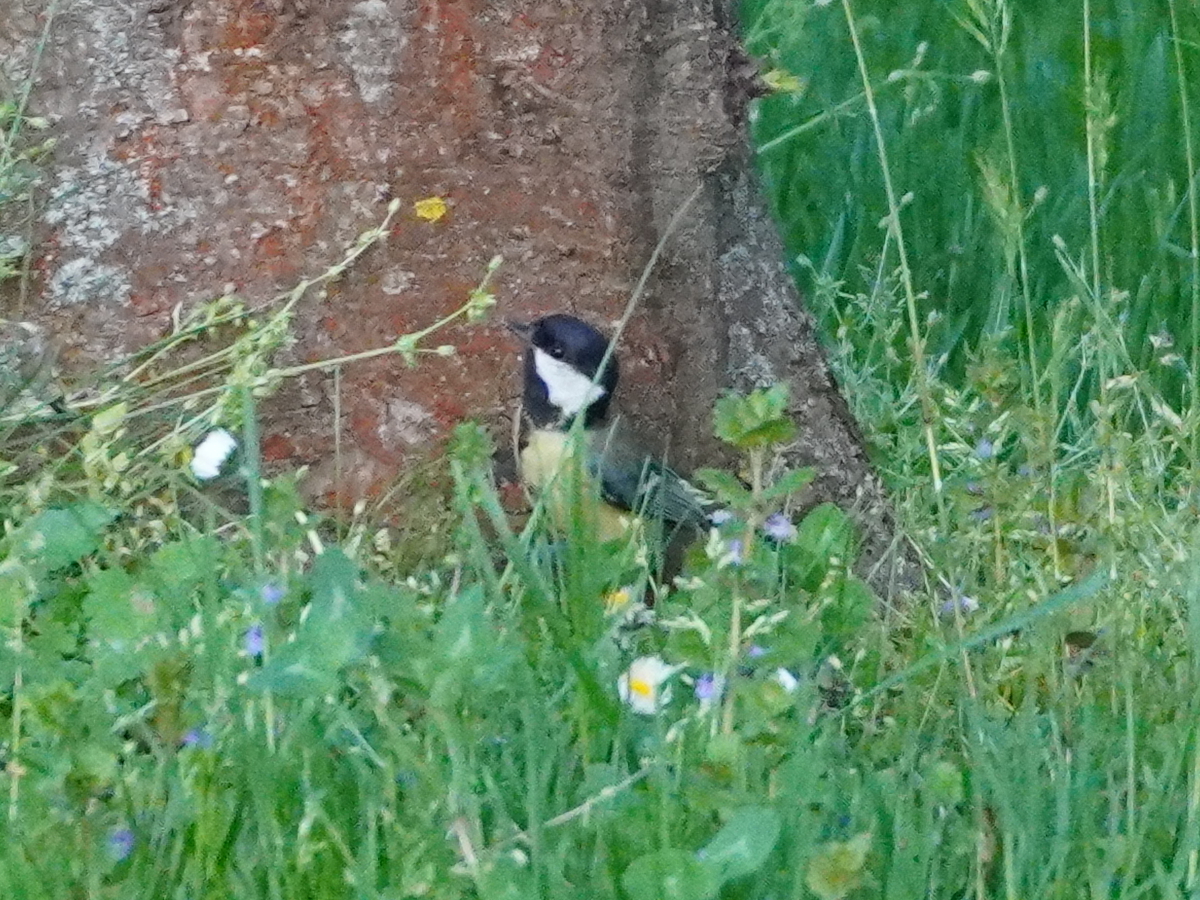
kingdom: Animalia
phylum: Chordata
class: Aves
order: Passeriformes
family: Paridae
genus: Parus
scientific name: Parus major
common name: Great tit
